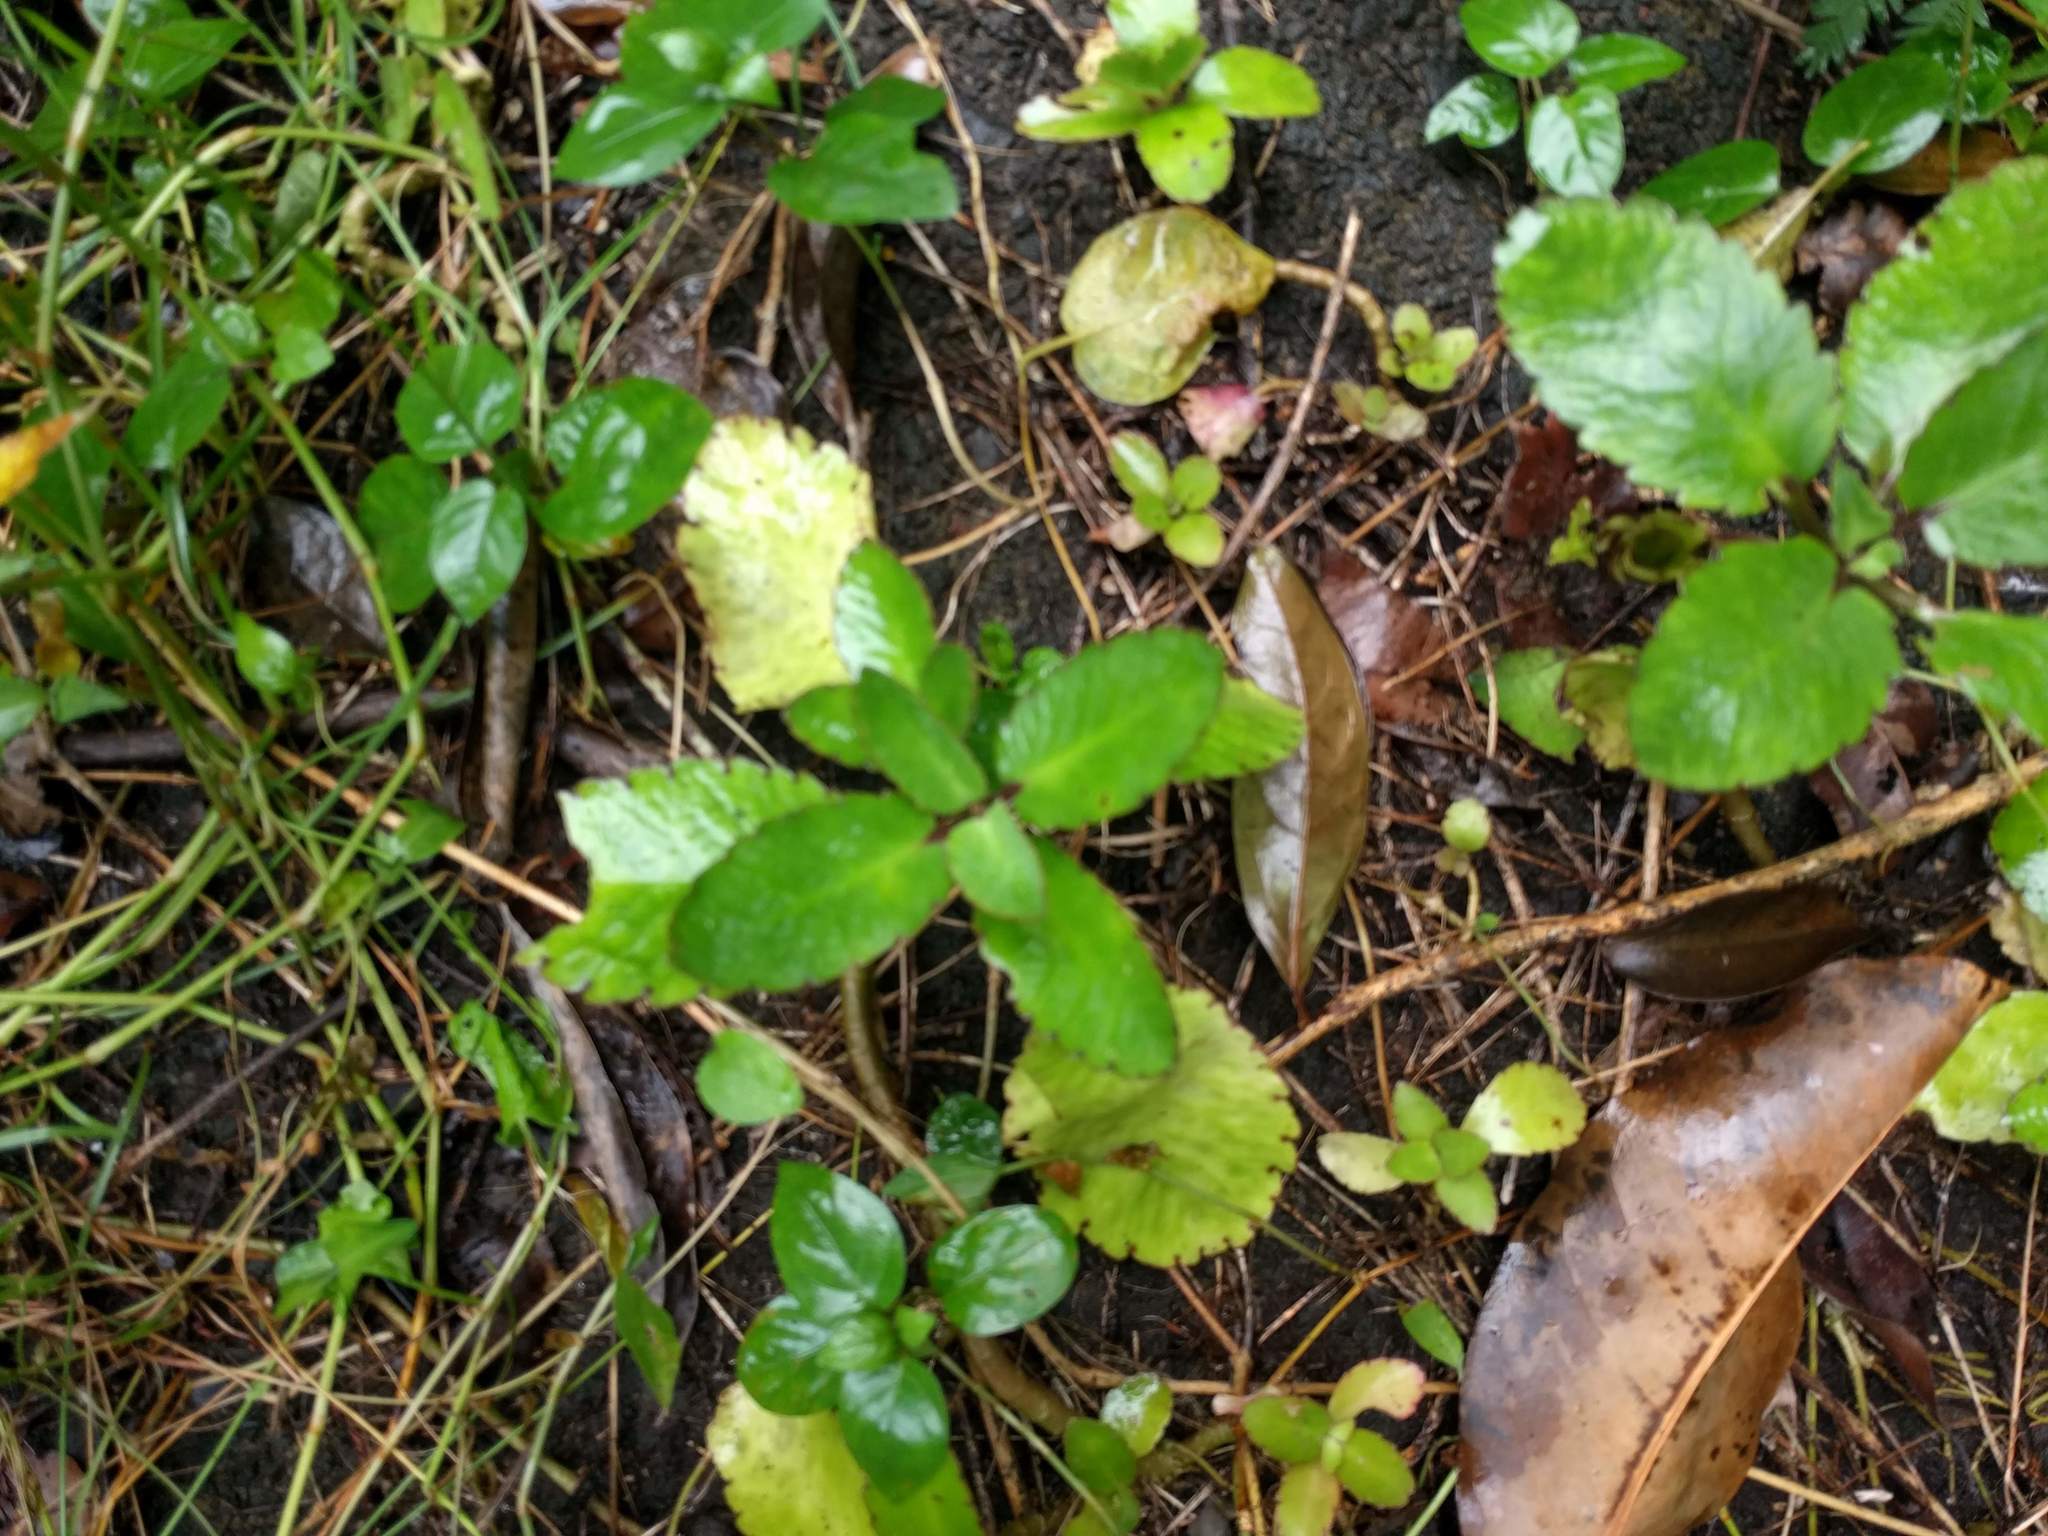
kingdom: Plantae
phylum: Tracheophyta
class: Magnoliopsida
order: Saxifragales
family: Crassulaceae
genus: Kalanchoe
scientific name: Kalanchoe pinnata
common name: Cathedral bells
